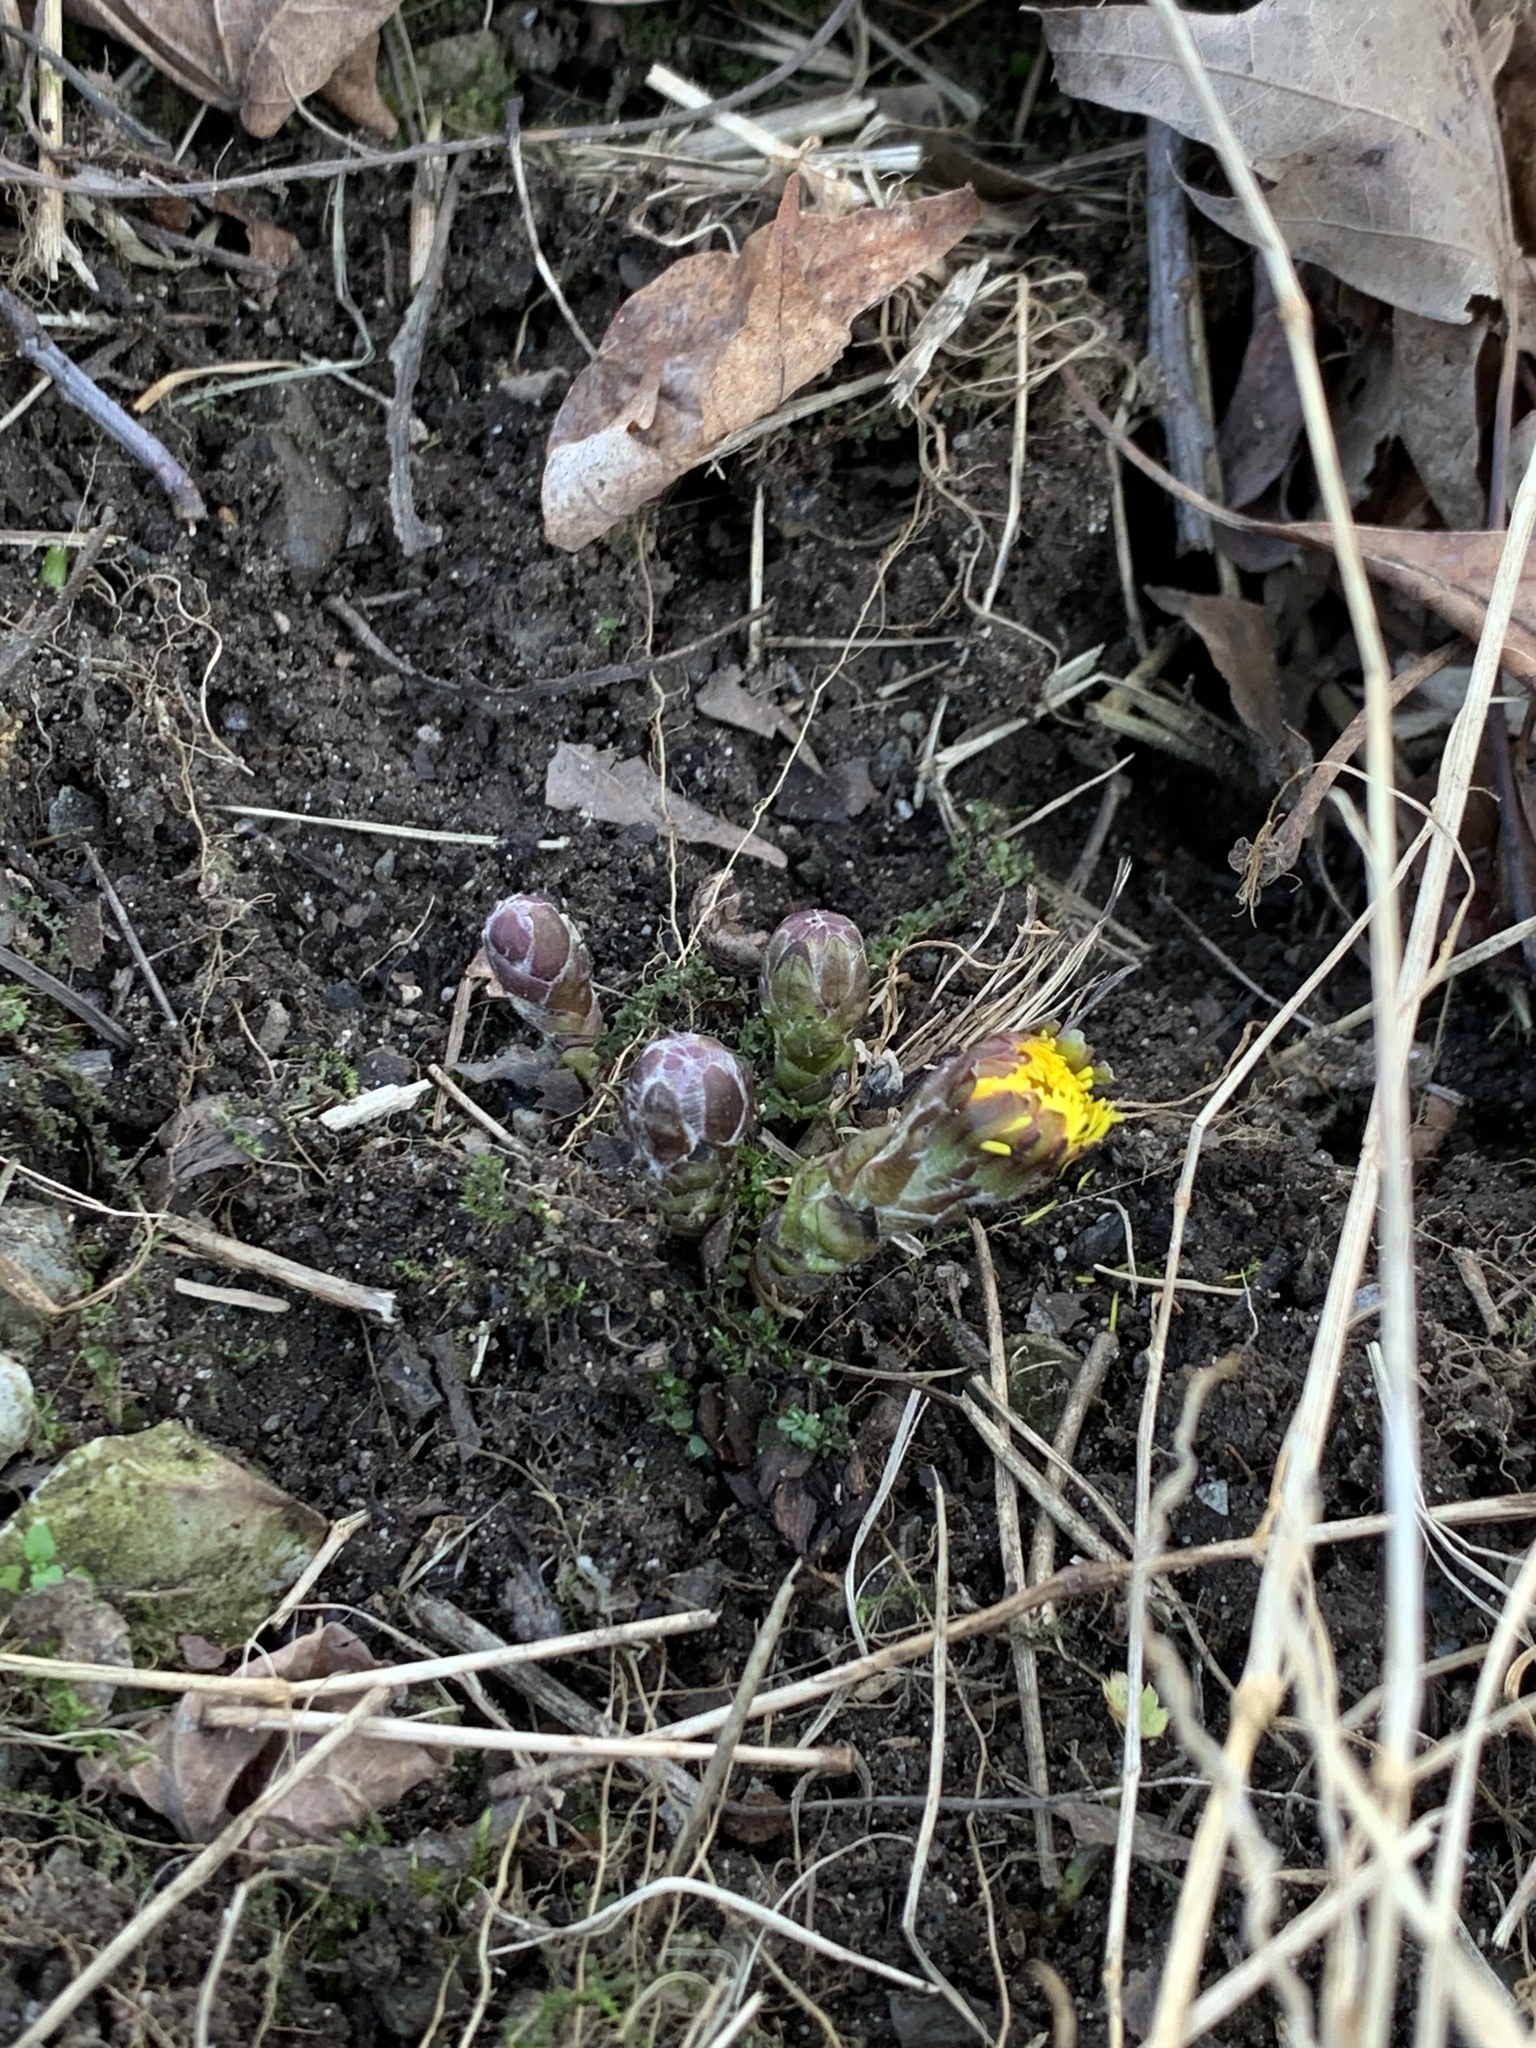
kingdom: Plantae
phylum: Tracheophyta
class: Magnoliopsida
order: Asterales
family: Asteraceae
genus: Tussilago
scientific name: Tussilago farfara
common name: Coltsfoot
